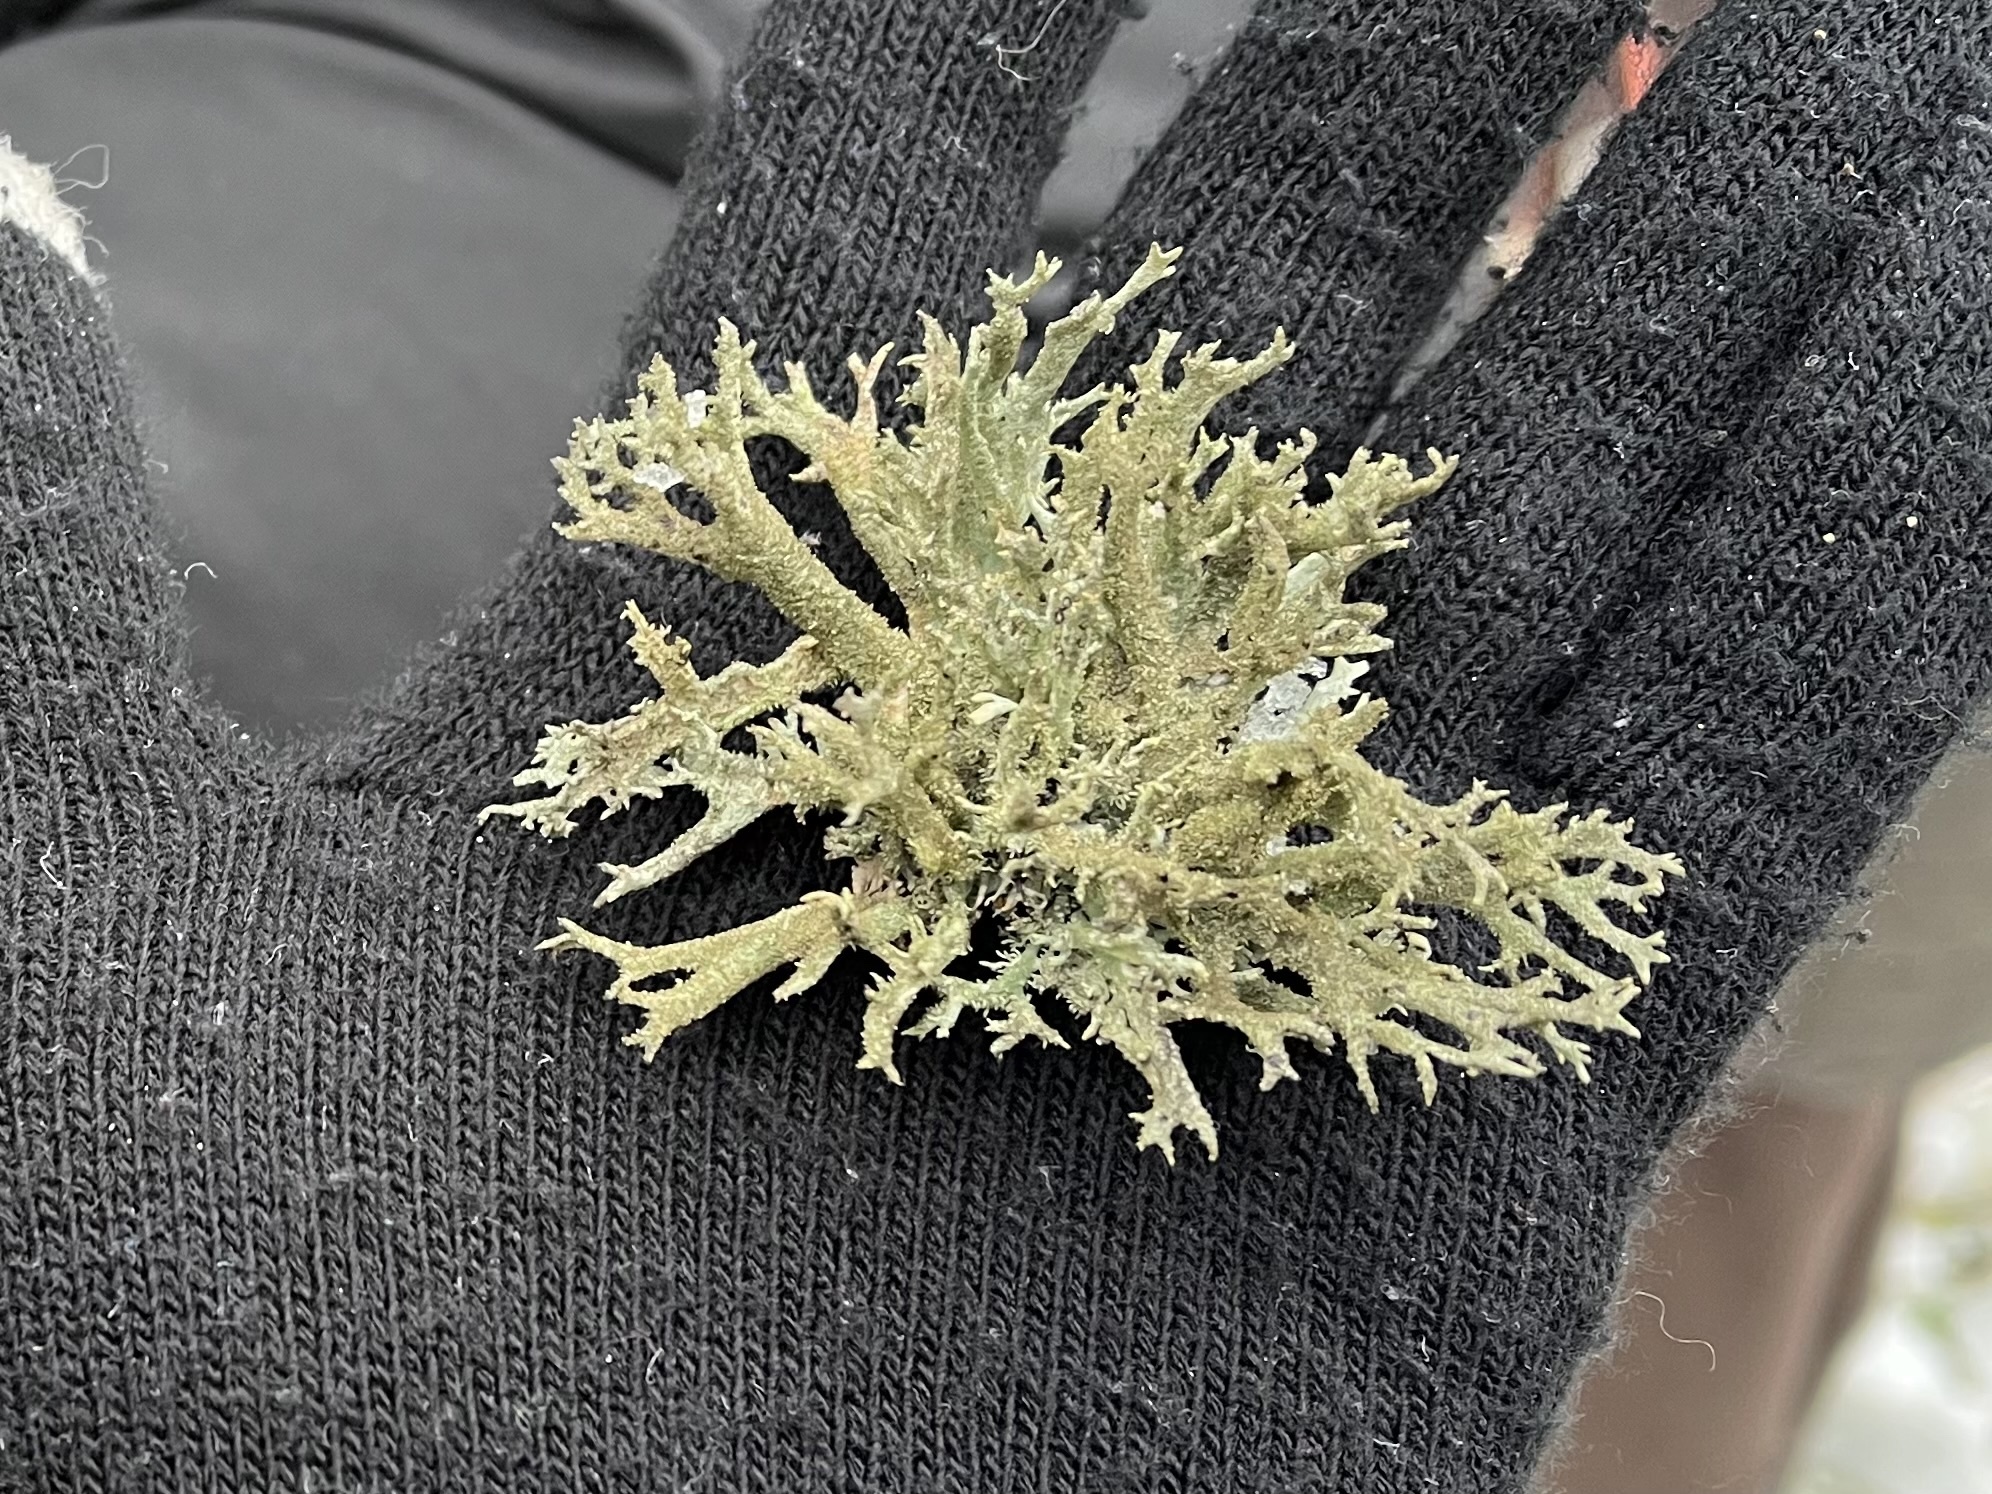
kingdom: Fungi
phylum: Ascomycota
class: Lecanoromycetes
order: Lecanorales
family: Parmeliaceae
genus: Pseudevernia
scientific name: Pseudevernia furfuracea
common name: Tree moss
